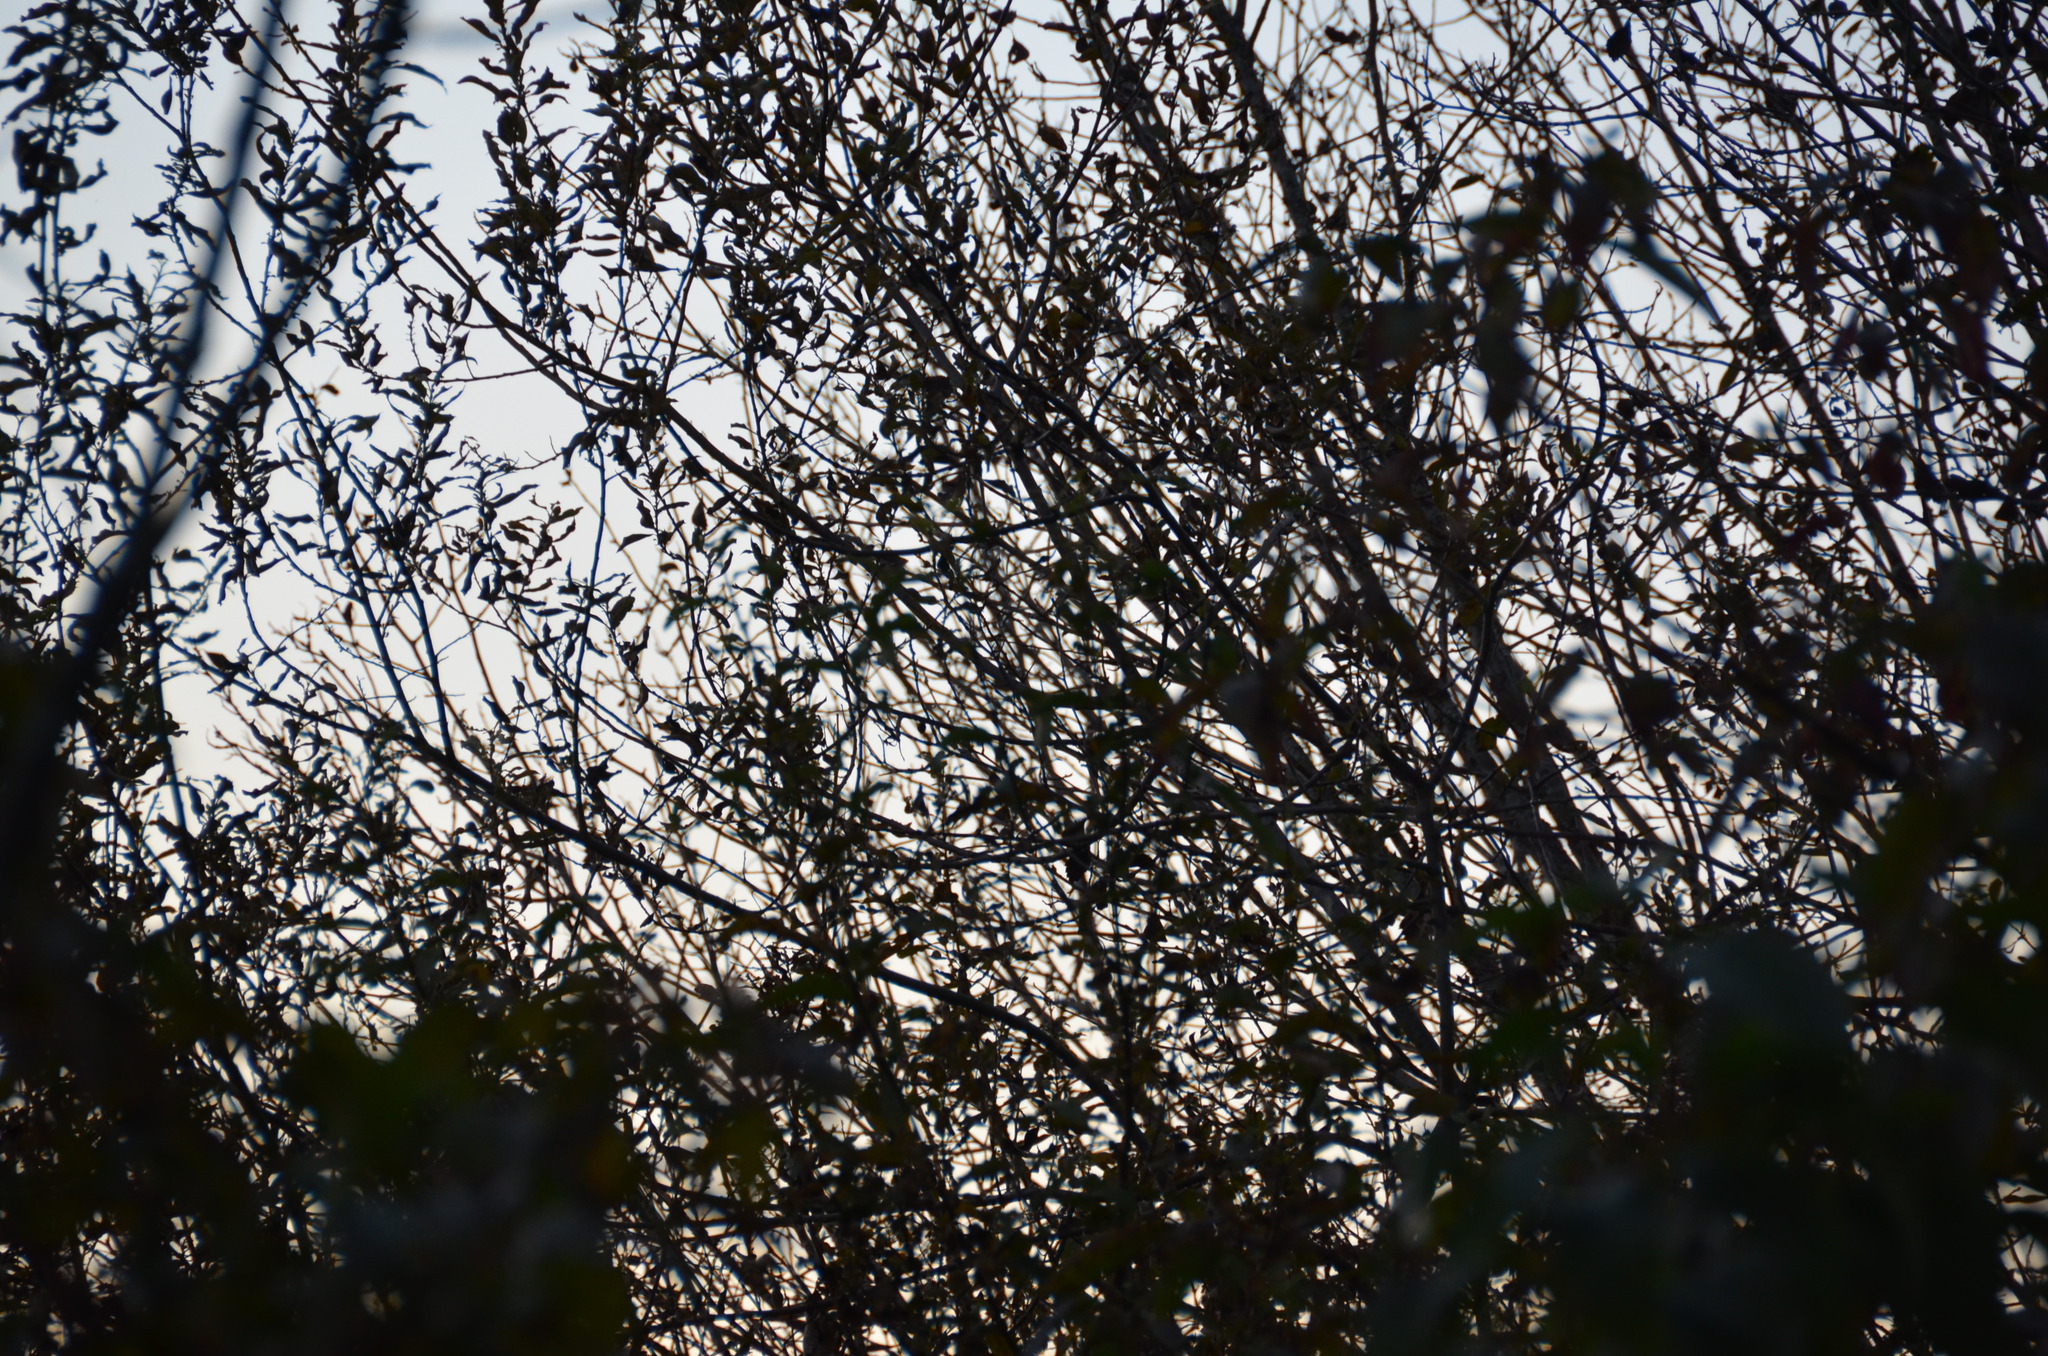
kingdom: Animalia
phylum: Chordata
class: Aves
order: Passeriformes
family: Turdidae
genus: Turdus
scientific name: Turdus migratorius
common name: American robin
